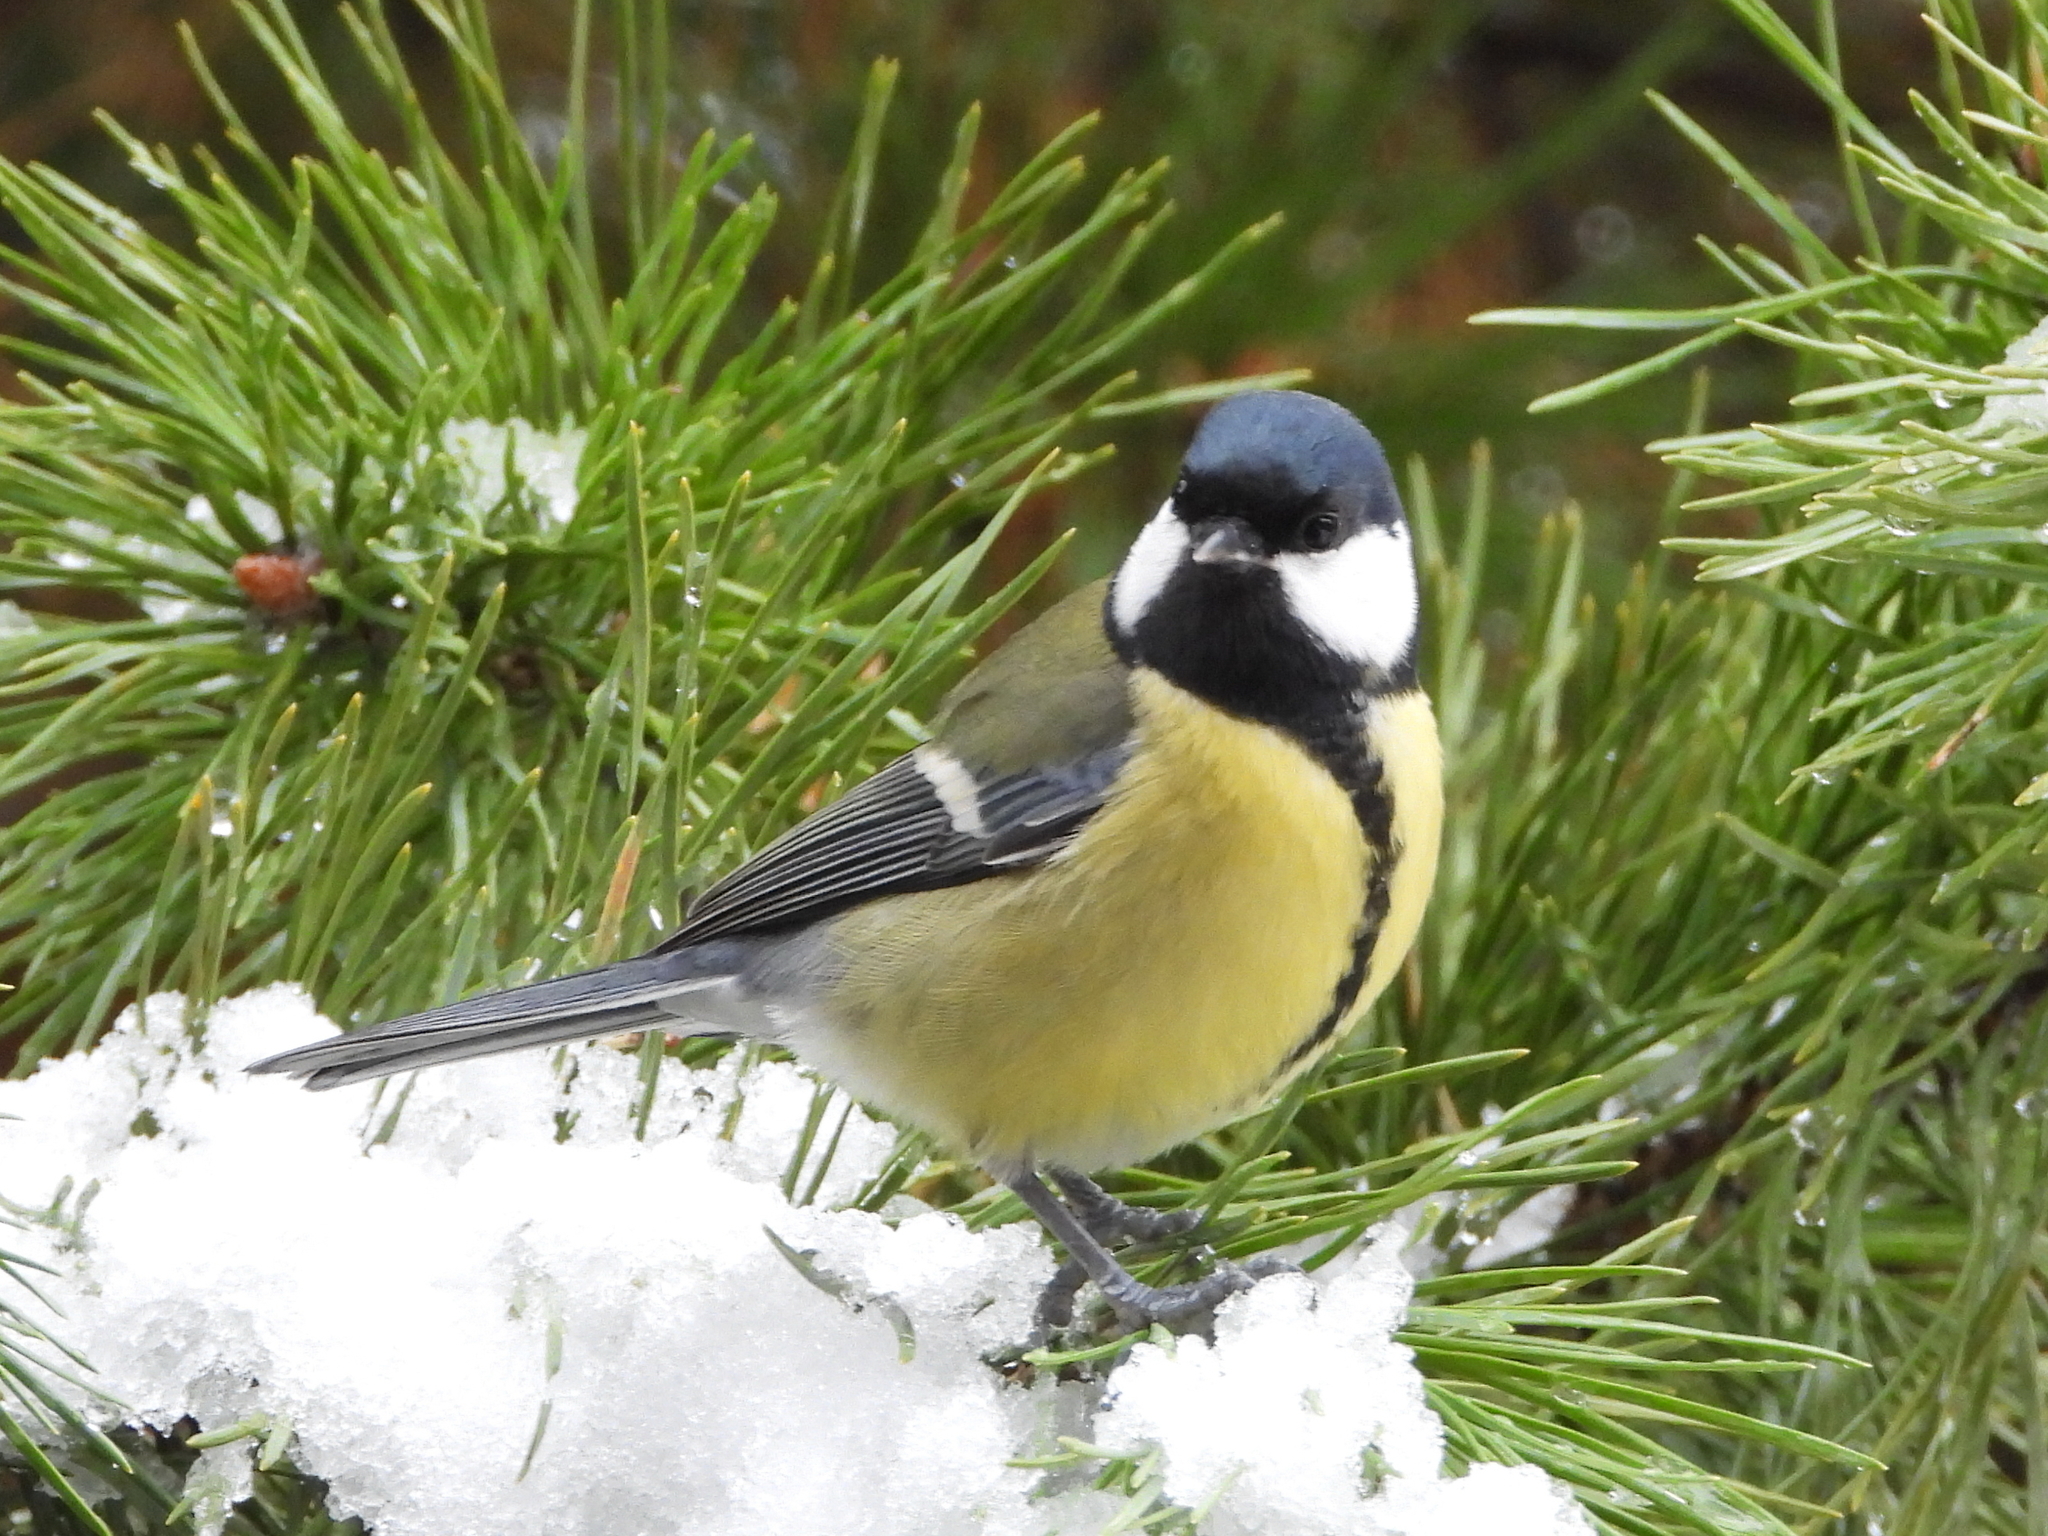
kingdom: Animalia
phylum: Chordata
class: Aves
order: Passeriformes
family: Paridae
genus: Parus
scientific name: Parus major
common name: Great tit
